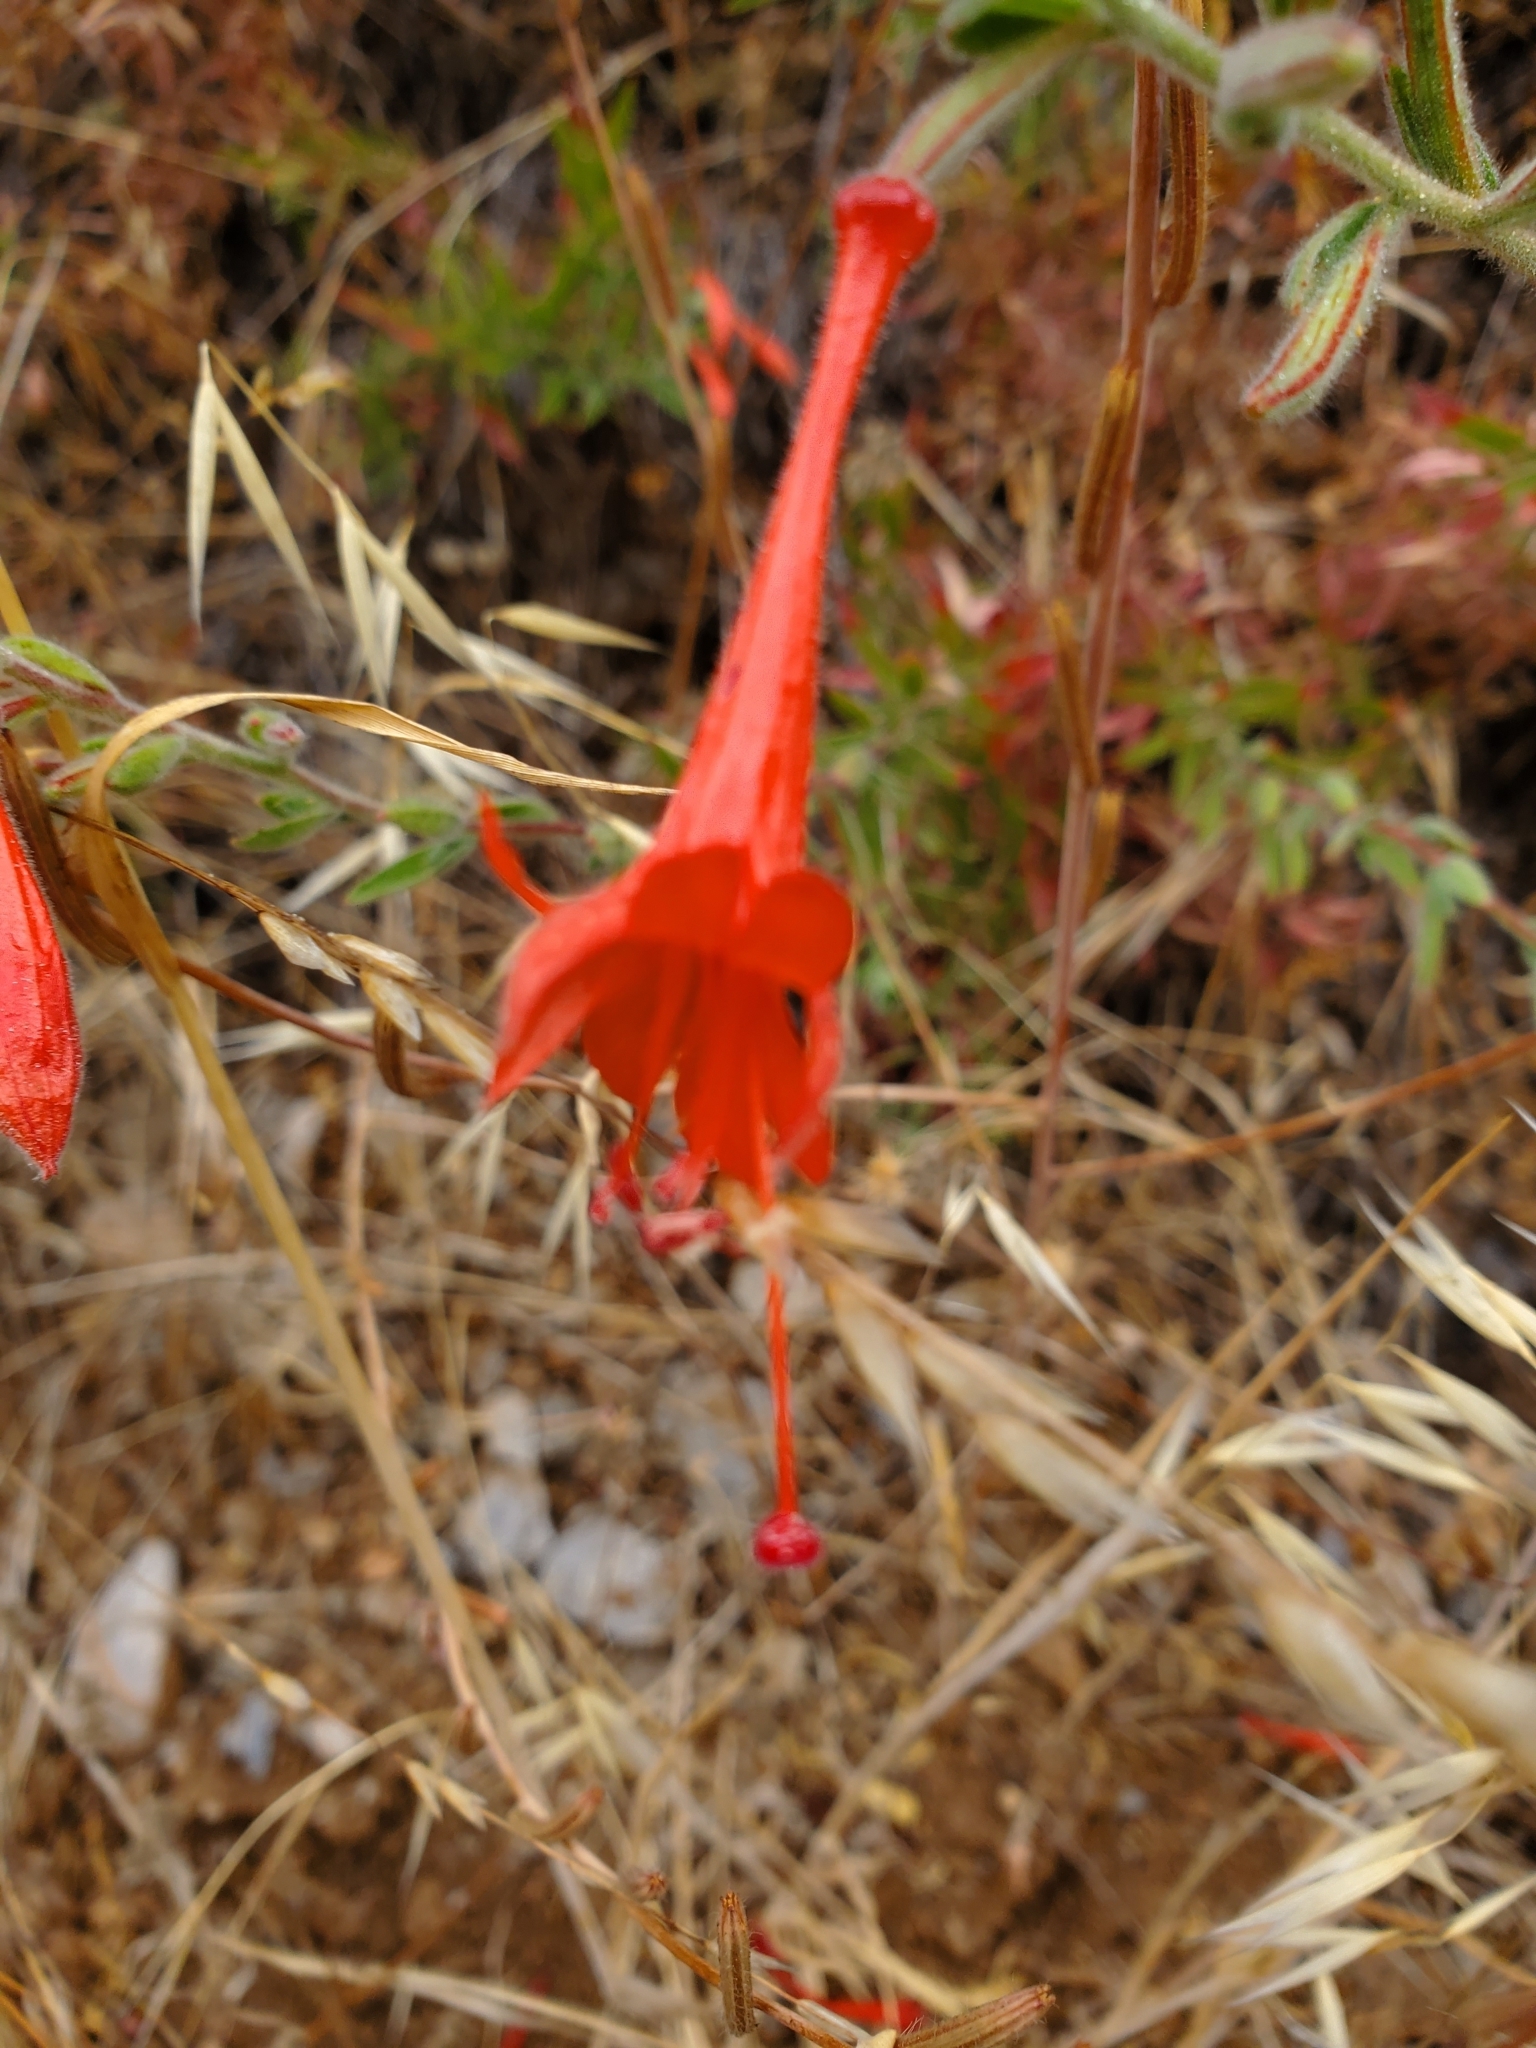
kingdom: Plantae
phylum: Tracheophyta
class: Magnoliopsida
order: Myrtales
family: Onagraceae
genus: Epilobium
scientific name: Epilobium canum
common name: California-fuchsia
